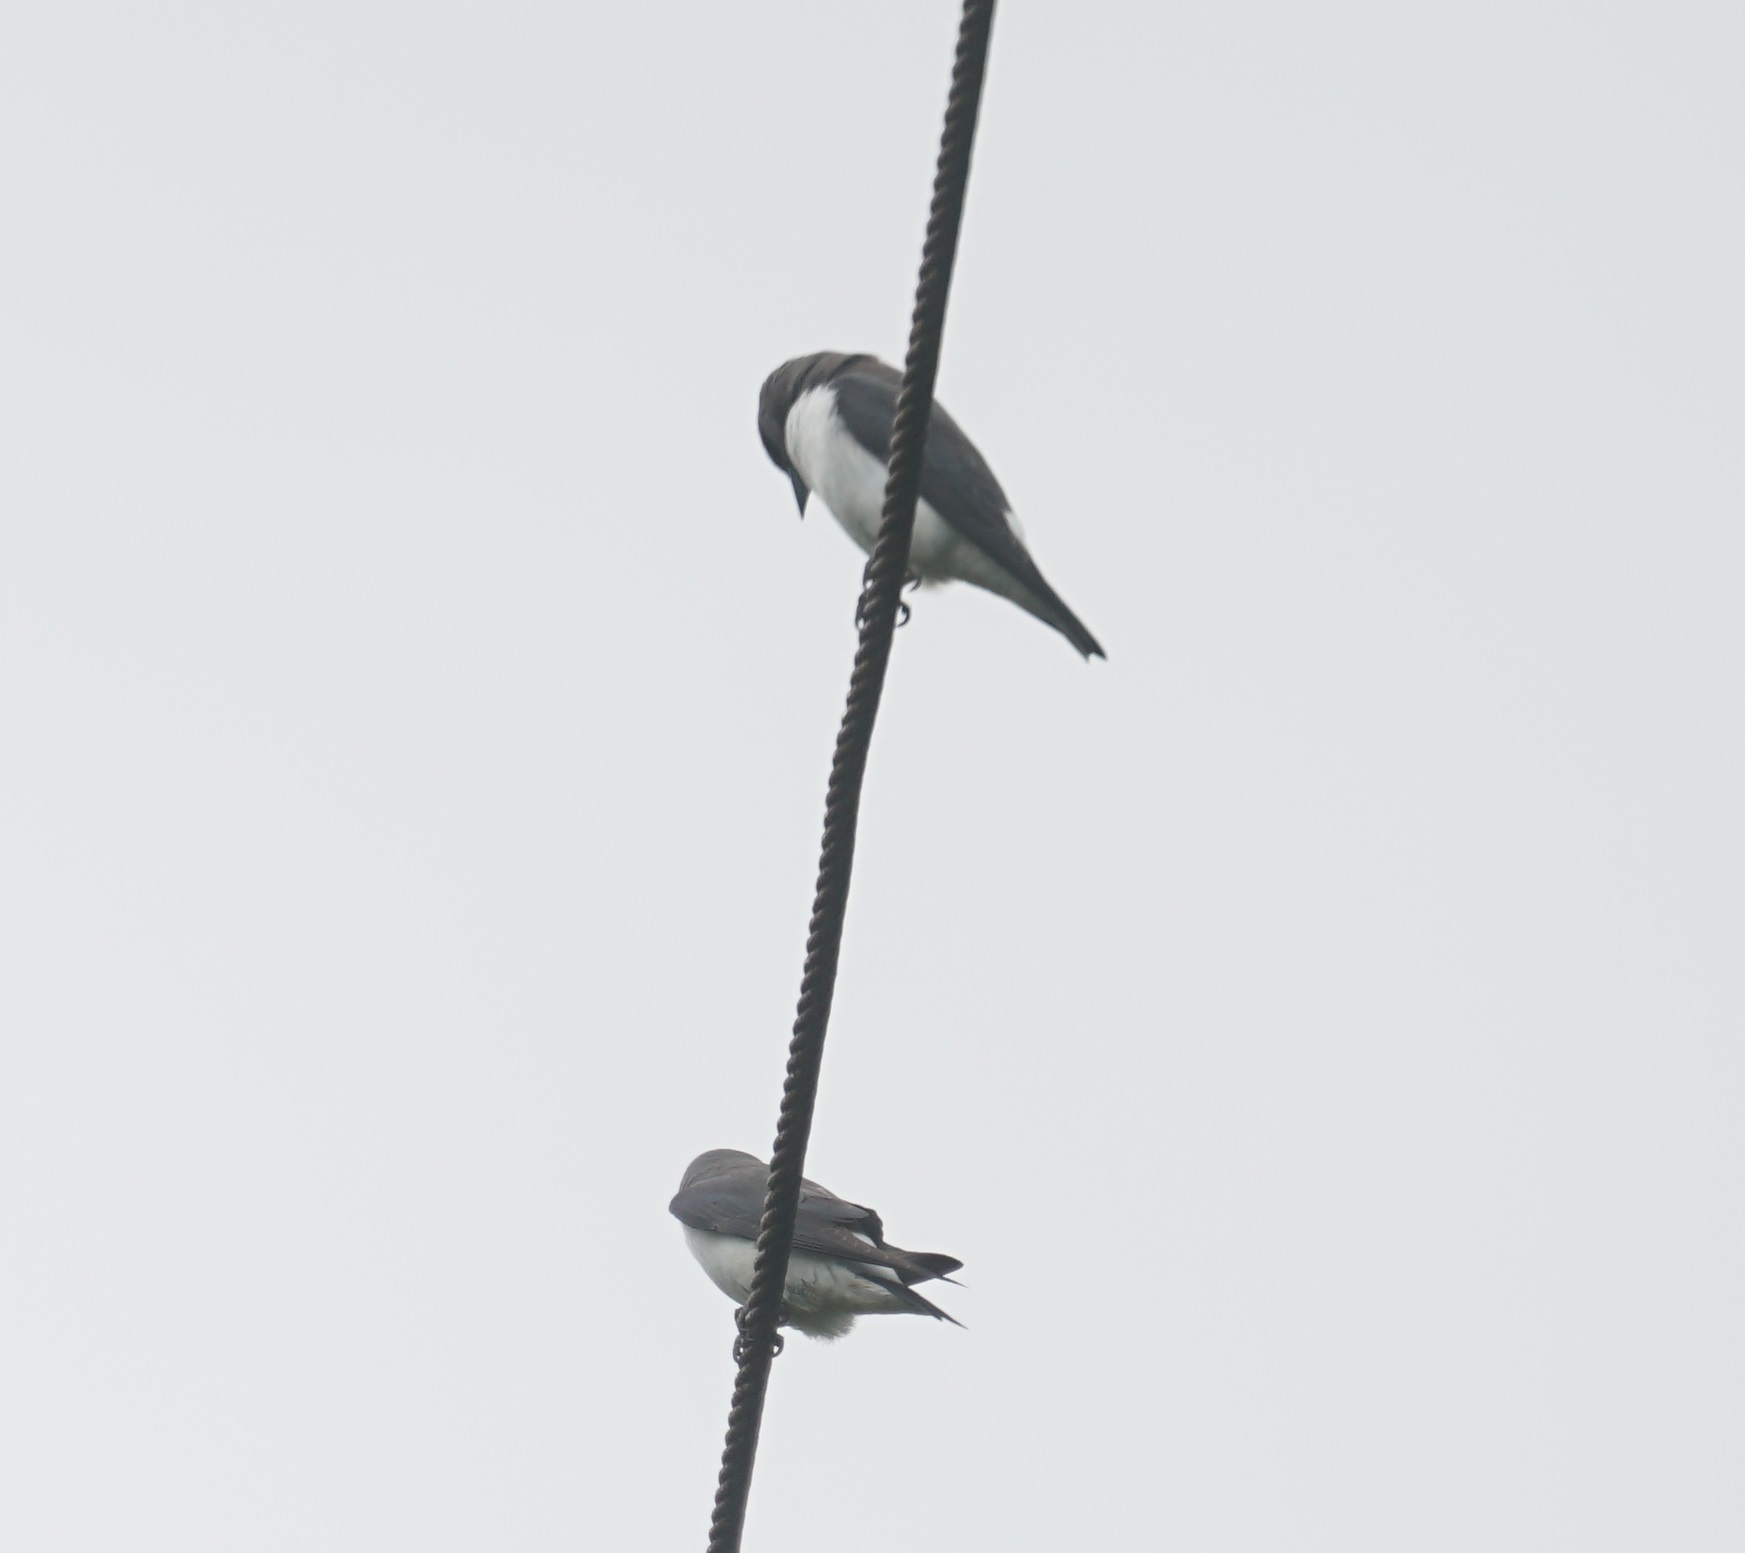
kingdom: Animalia
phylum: Chordata
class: Aves
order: Passeriformes
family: Artamidae
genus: Artamus
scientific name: Artamus leucoryn
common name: White-breasted woodswallow
